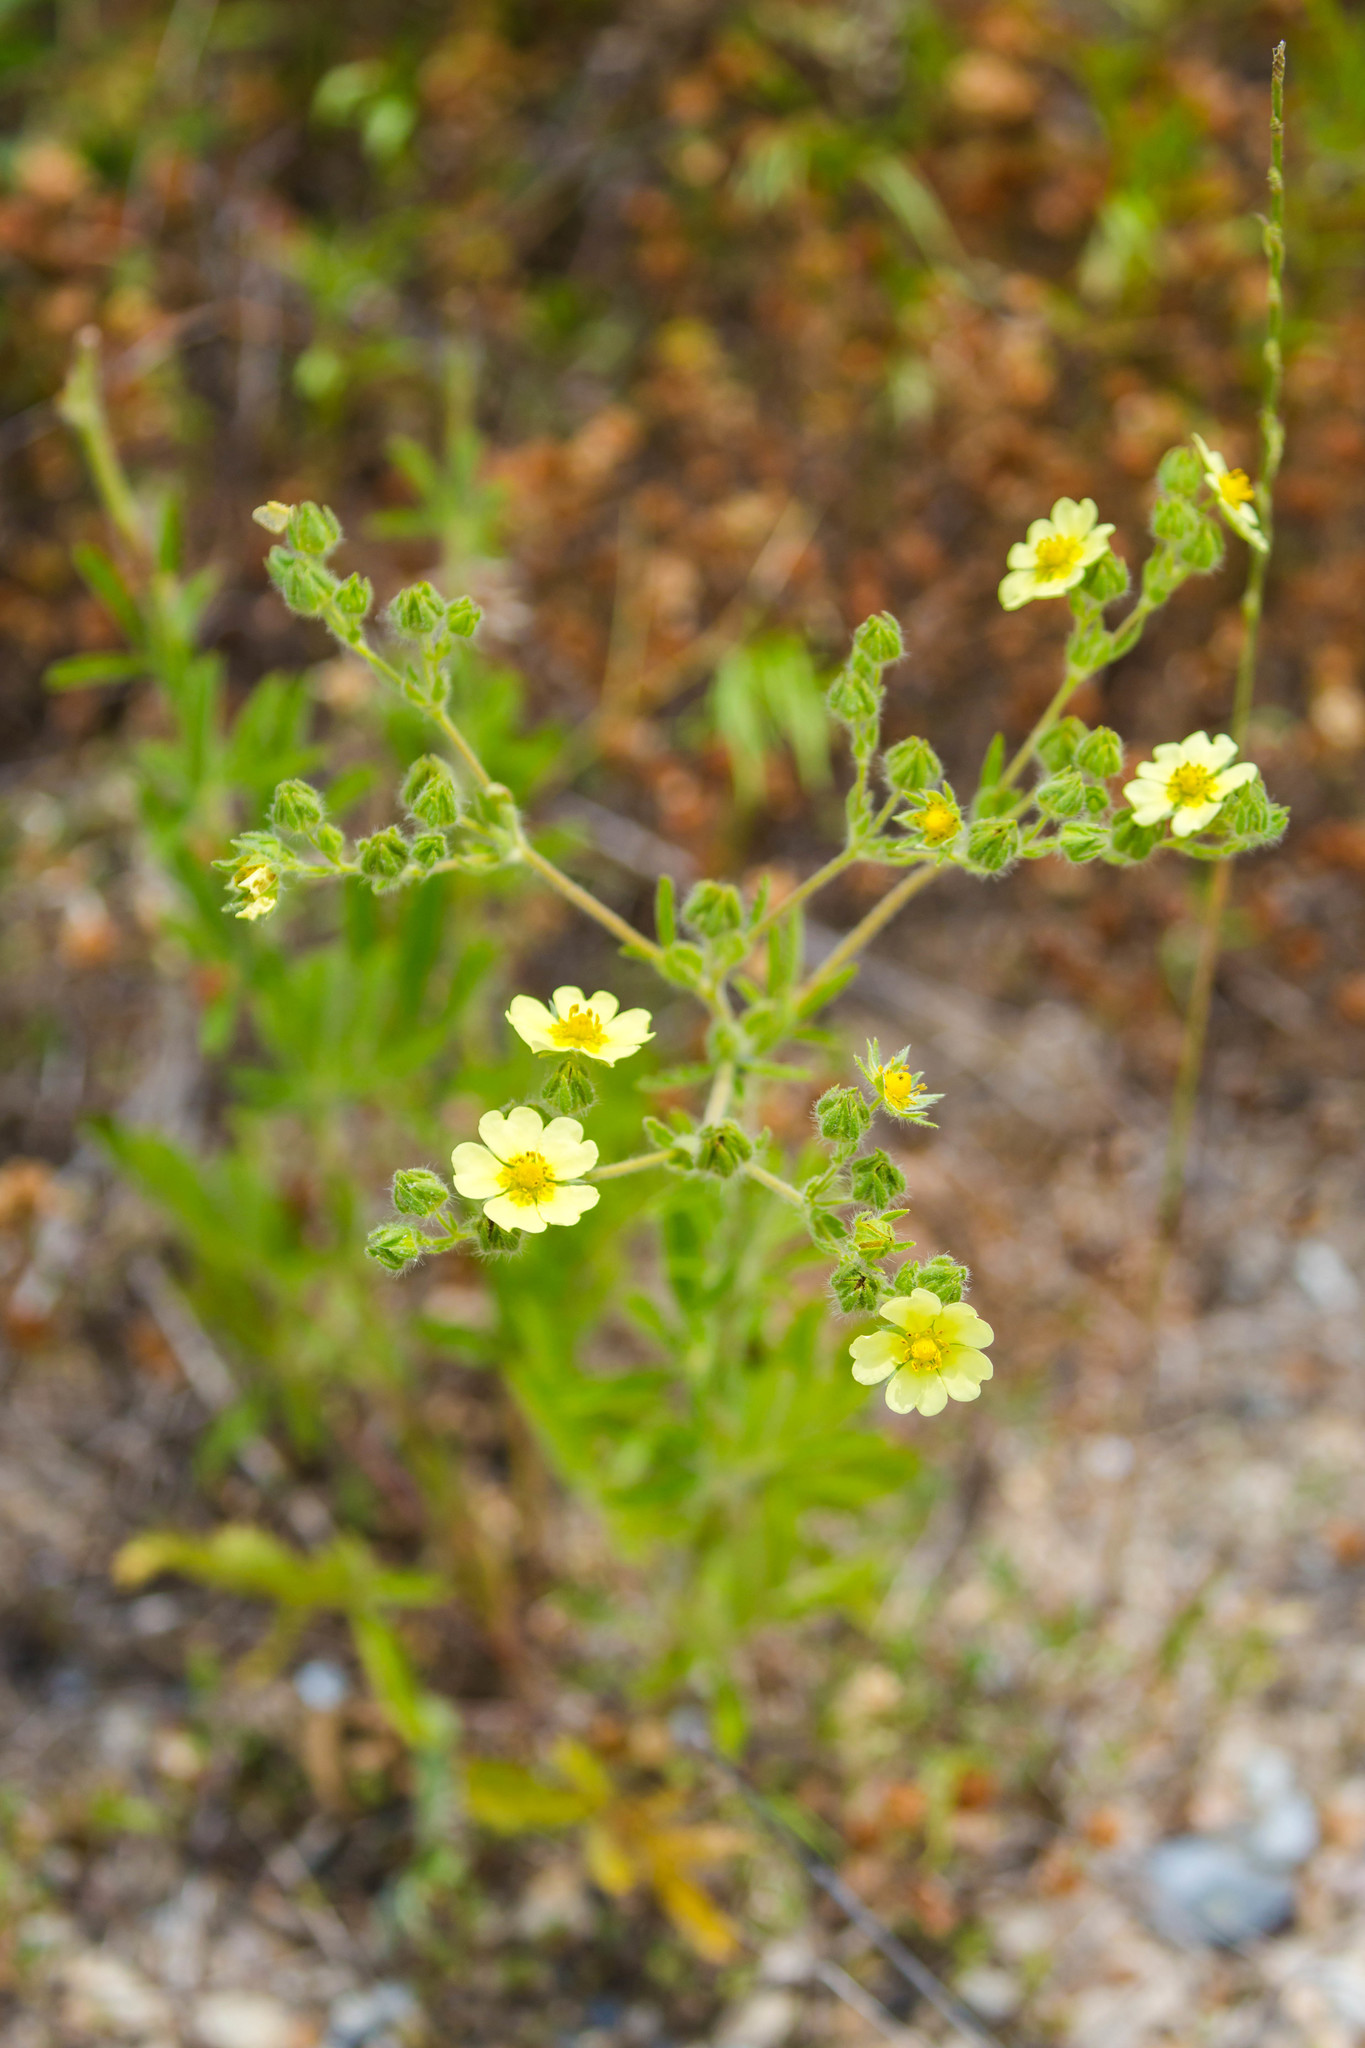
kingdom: Plantae
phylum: Tracheophyta
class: Magnoliopsida
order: Rosales
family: Rosaceae
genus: Potentilla
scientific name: Potentilla recta
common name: Sulphur cinquefoil
